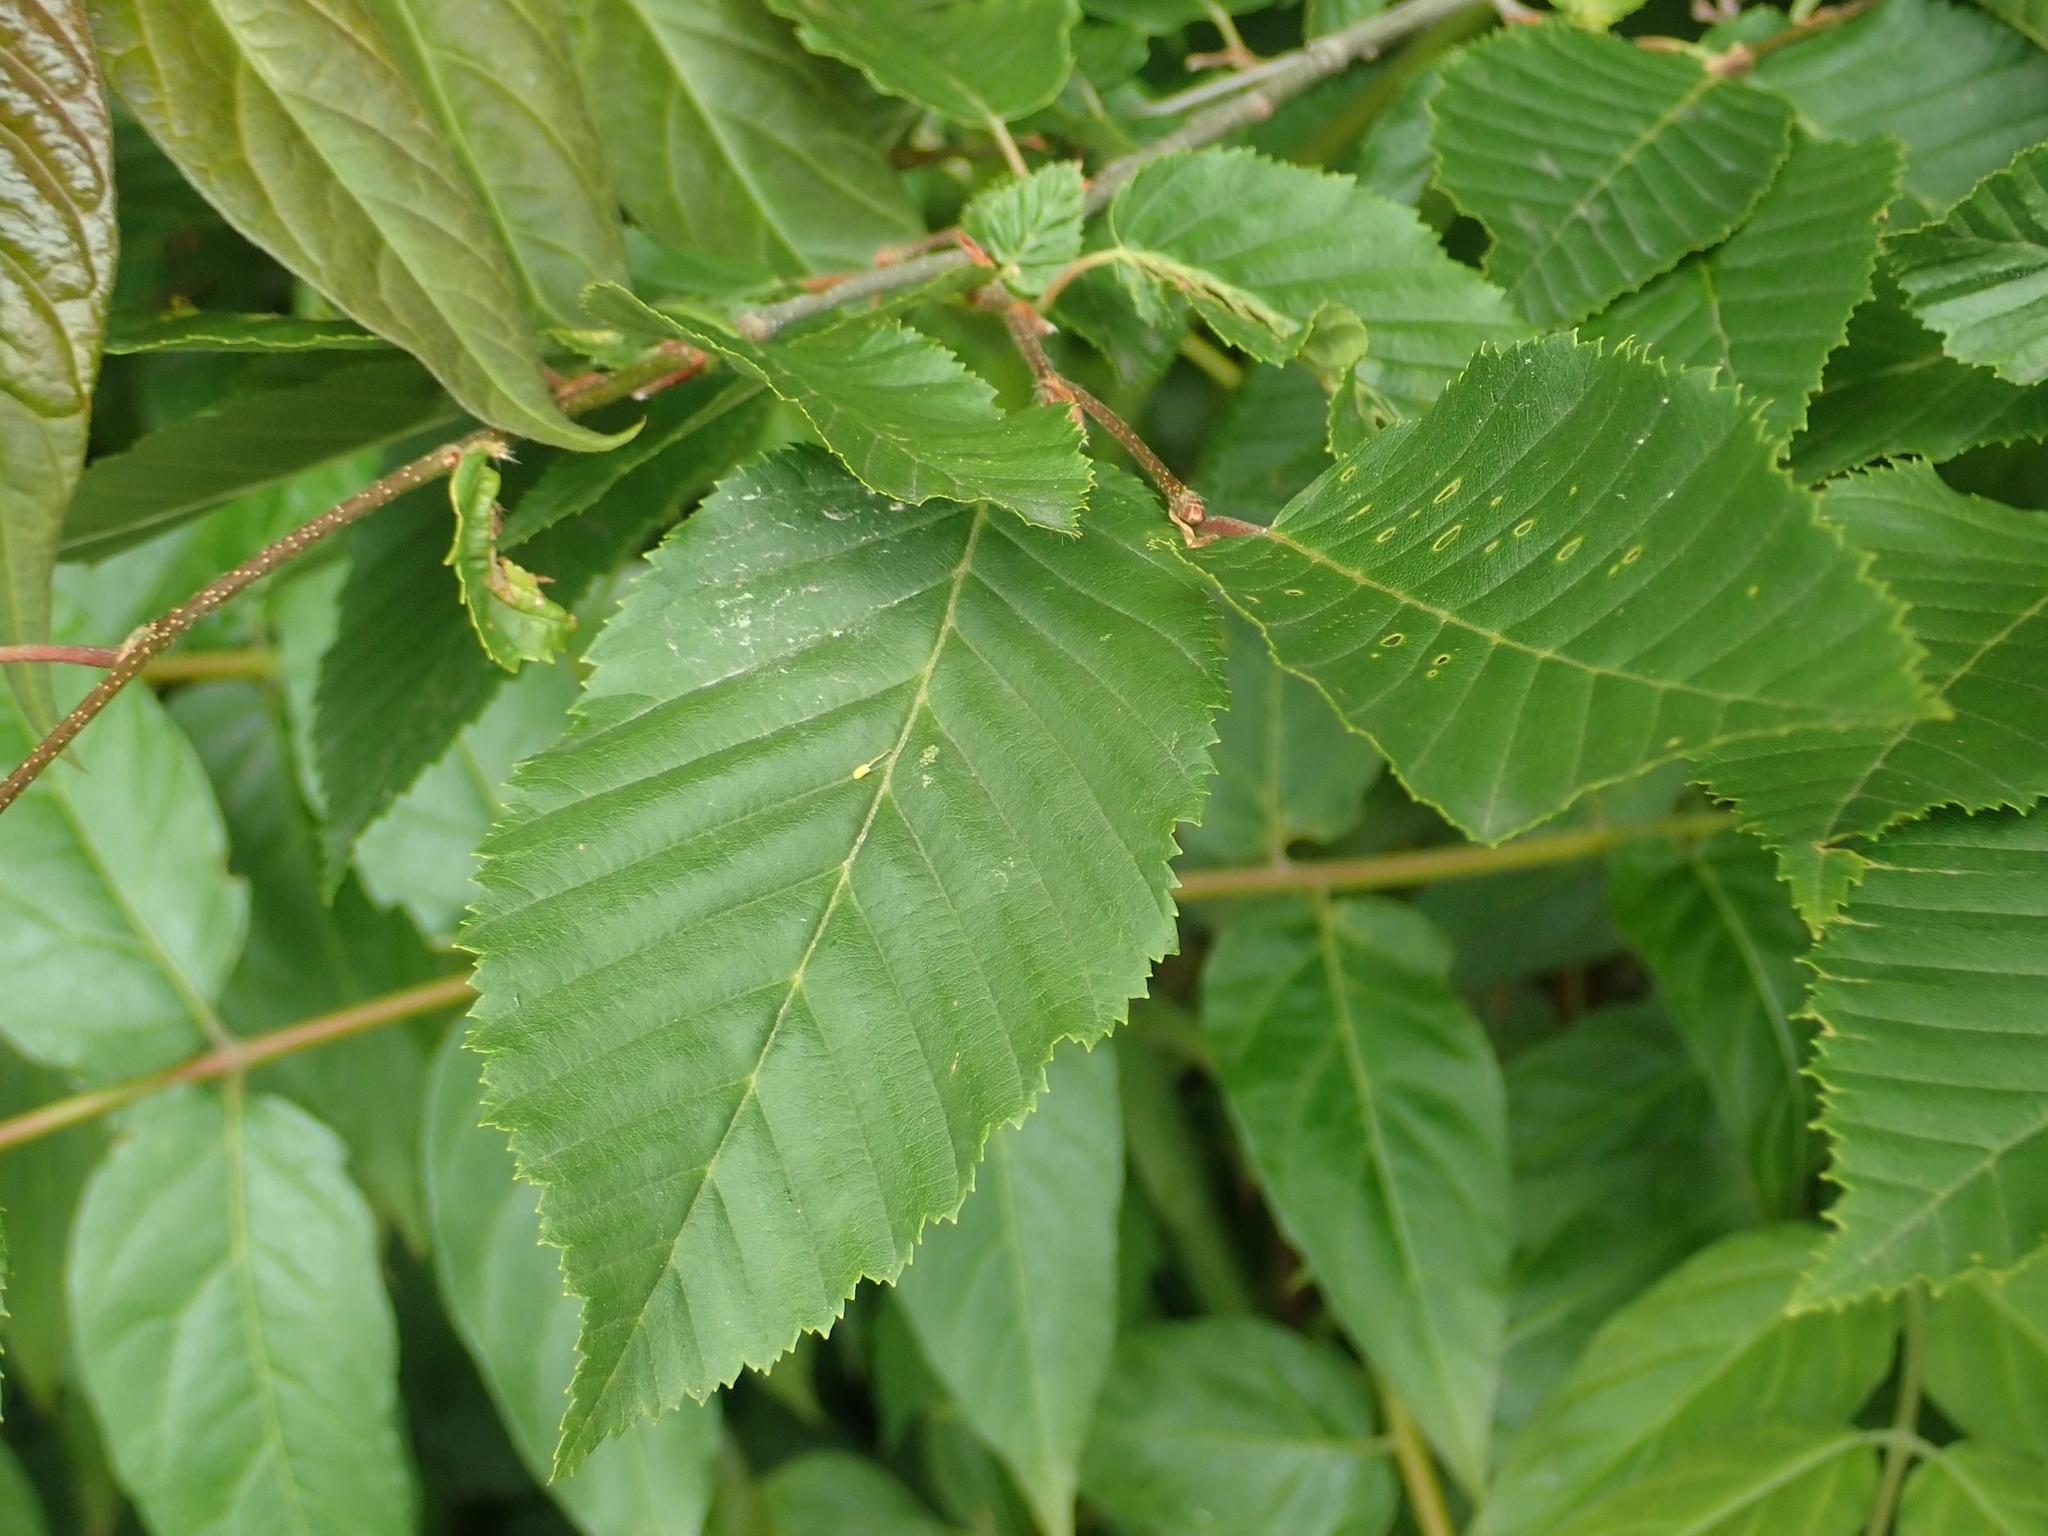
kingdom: Plantae
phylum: Tracheophyta
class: Magnoliopsida
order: Fagales
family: Betulaceae
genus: Carpinus
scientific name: Carpinus betulus
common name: Hornbeam
